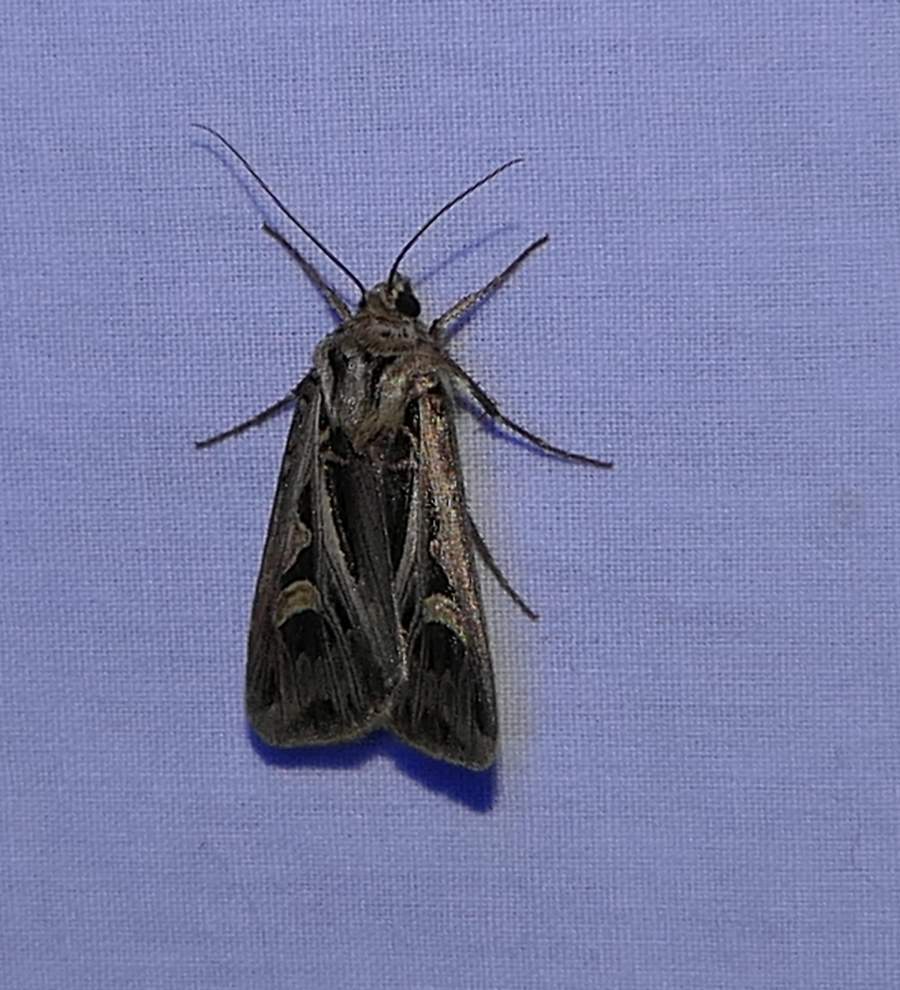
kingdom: Animalia
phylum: Arthropoda
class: Insecta
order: Lepidoptera
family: Noctuidae
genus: Feltia
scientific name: Feltia jaculifera
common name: Dingy cutworm moth
